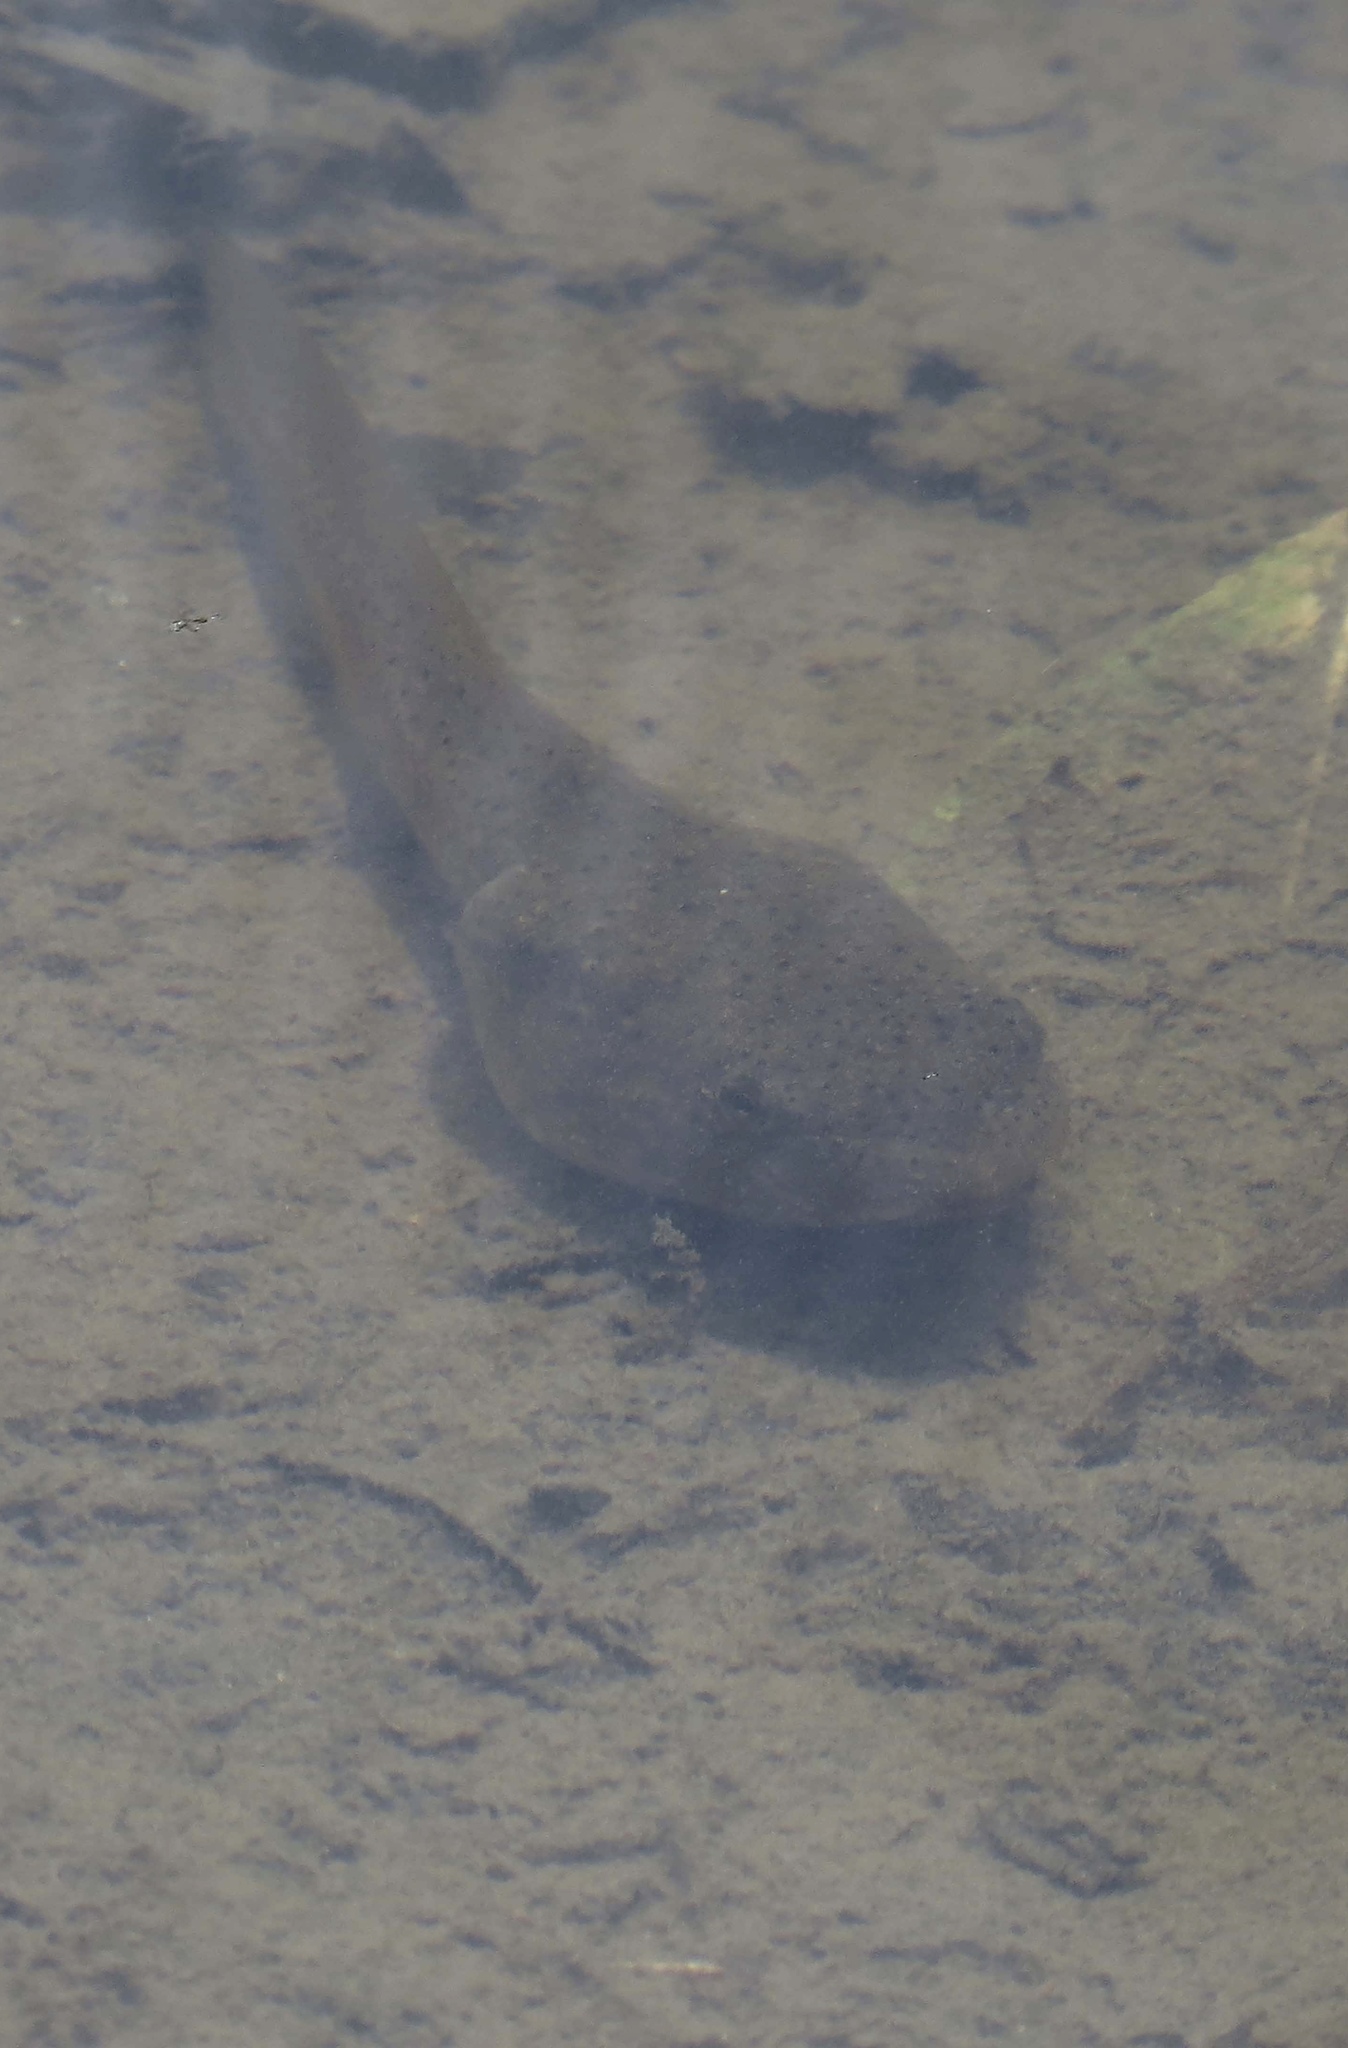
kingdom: Animalia
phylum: Chordata
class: Amphibia
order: Anura
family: Ranidae
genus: Lithobates
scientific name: Lithobates catesbeianus
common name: American bullfrog
